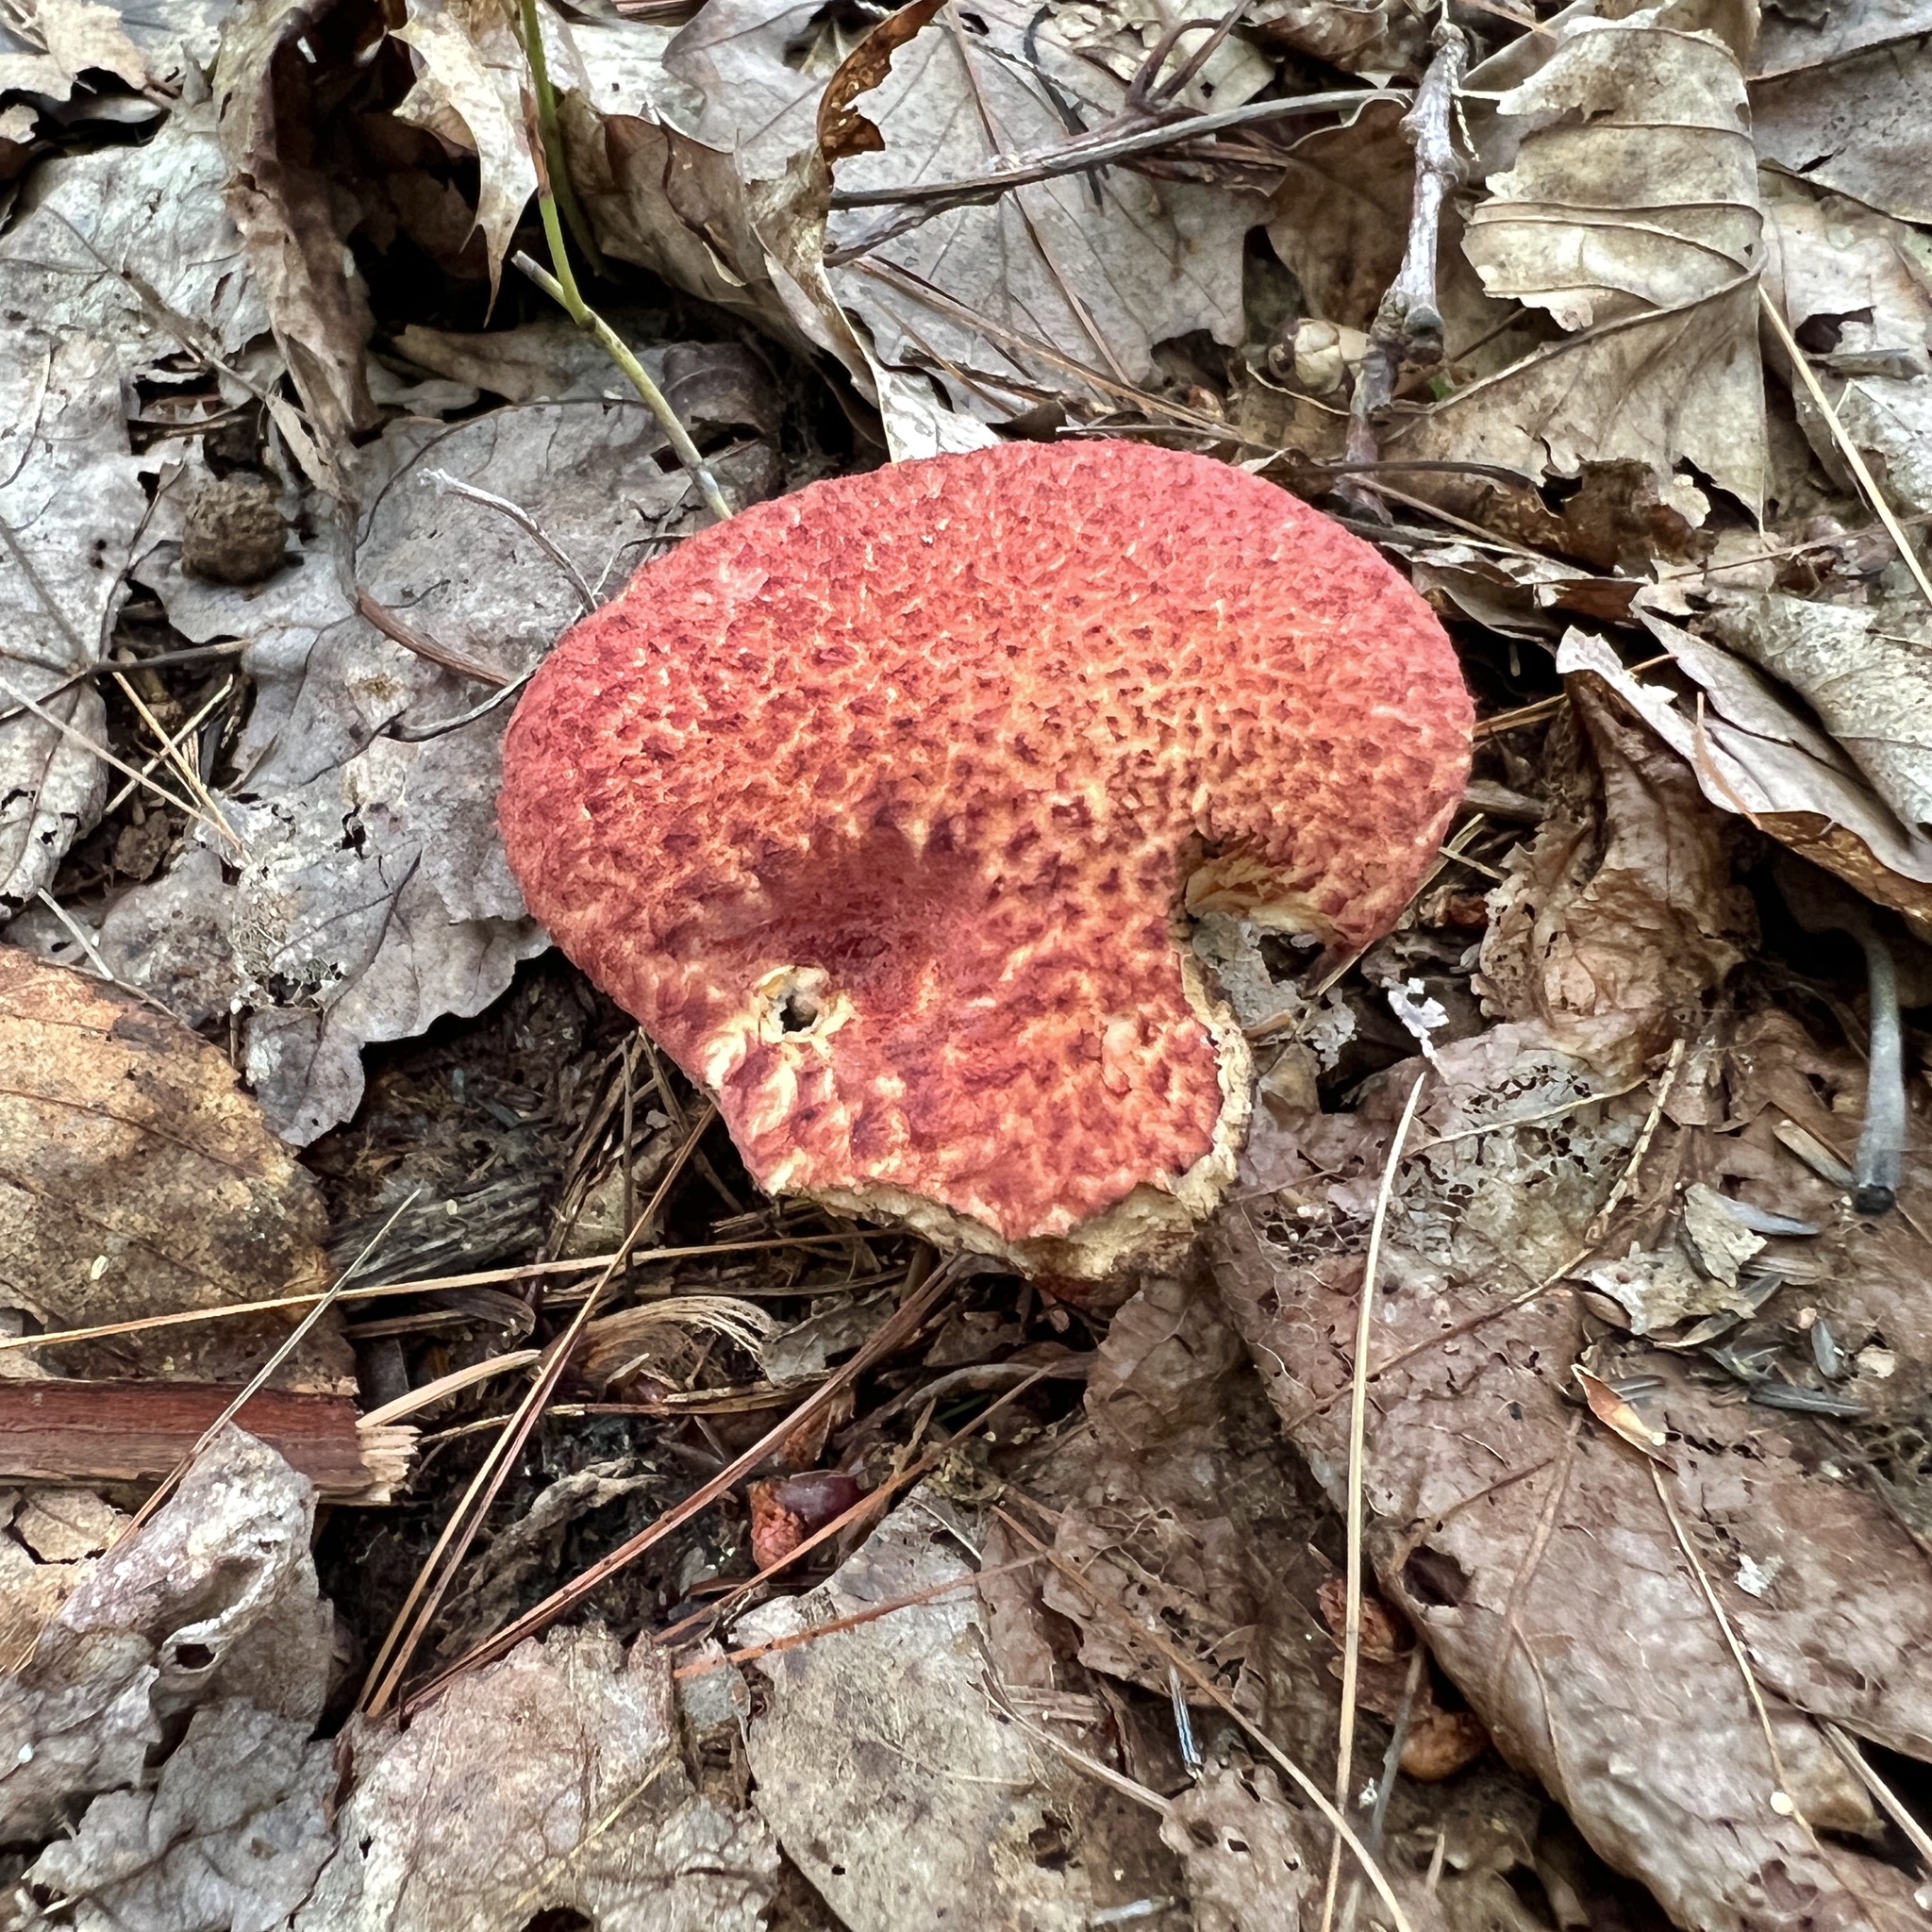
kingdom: Fungi
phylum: Basidiomycota
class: Agaricomycetes
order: Boletales
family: Suillaceae
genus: Suillus
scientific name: Suillus spraguei
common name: Painted suillus
